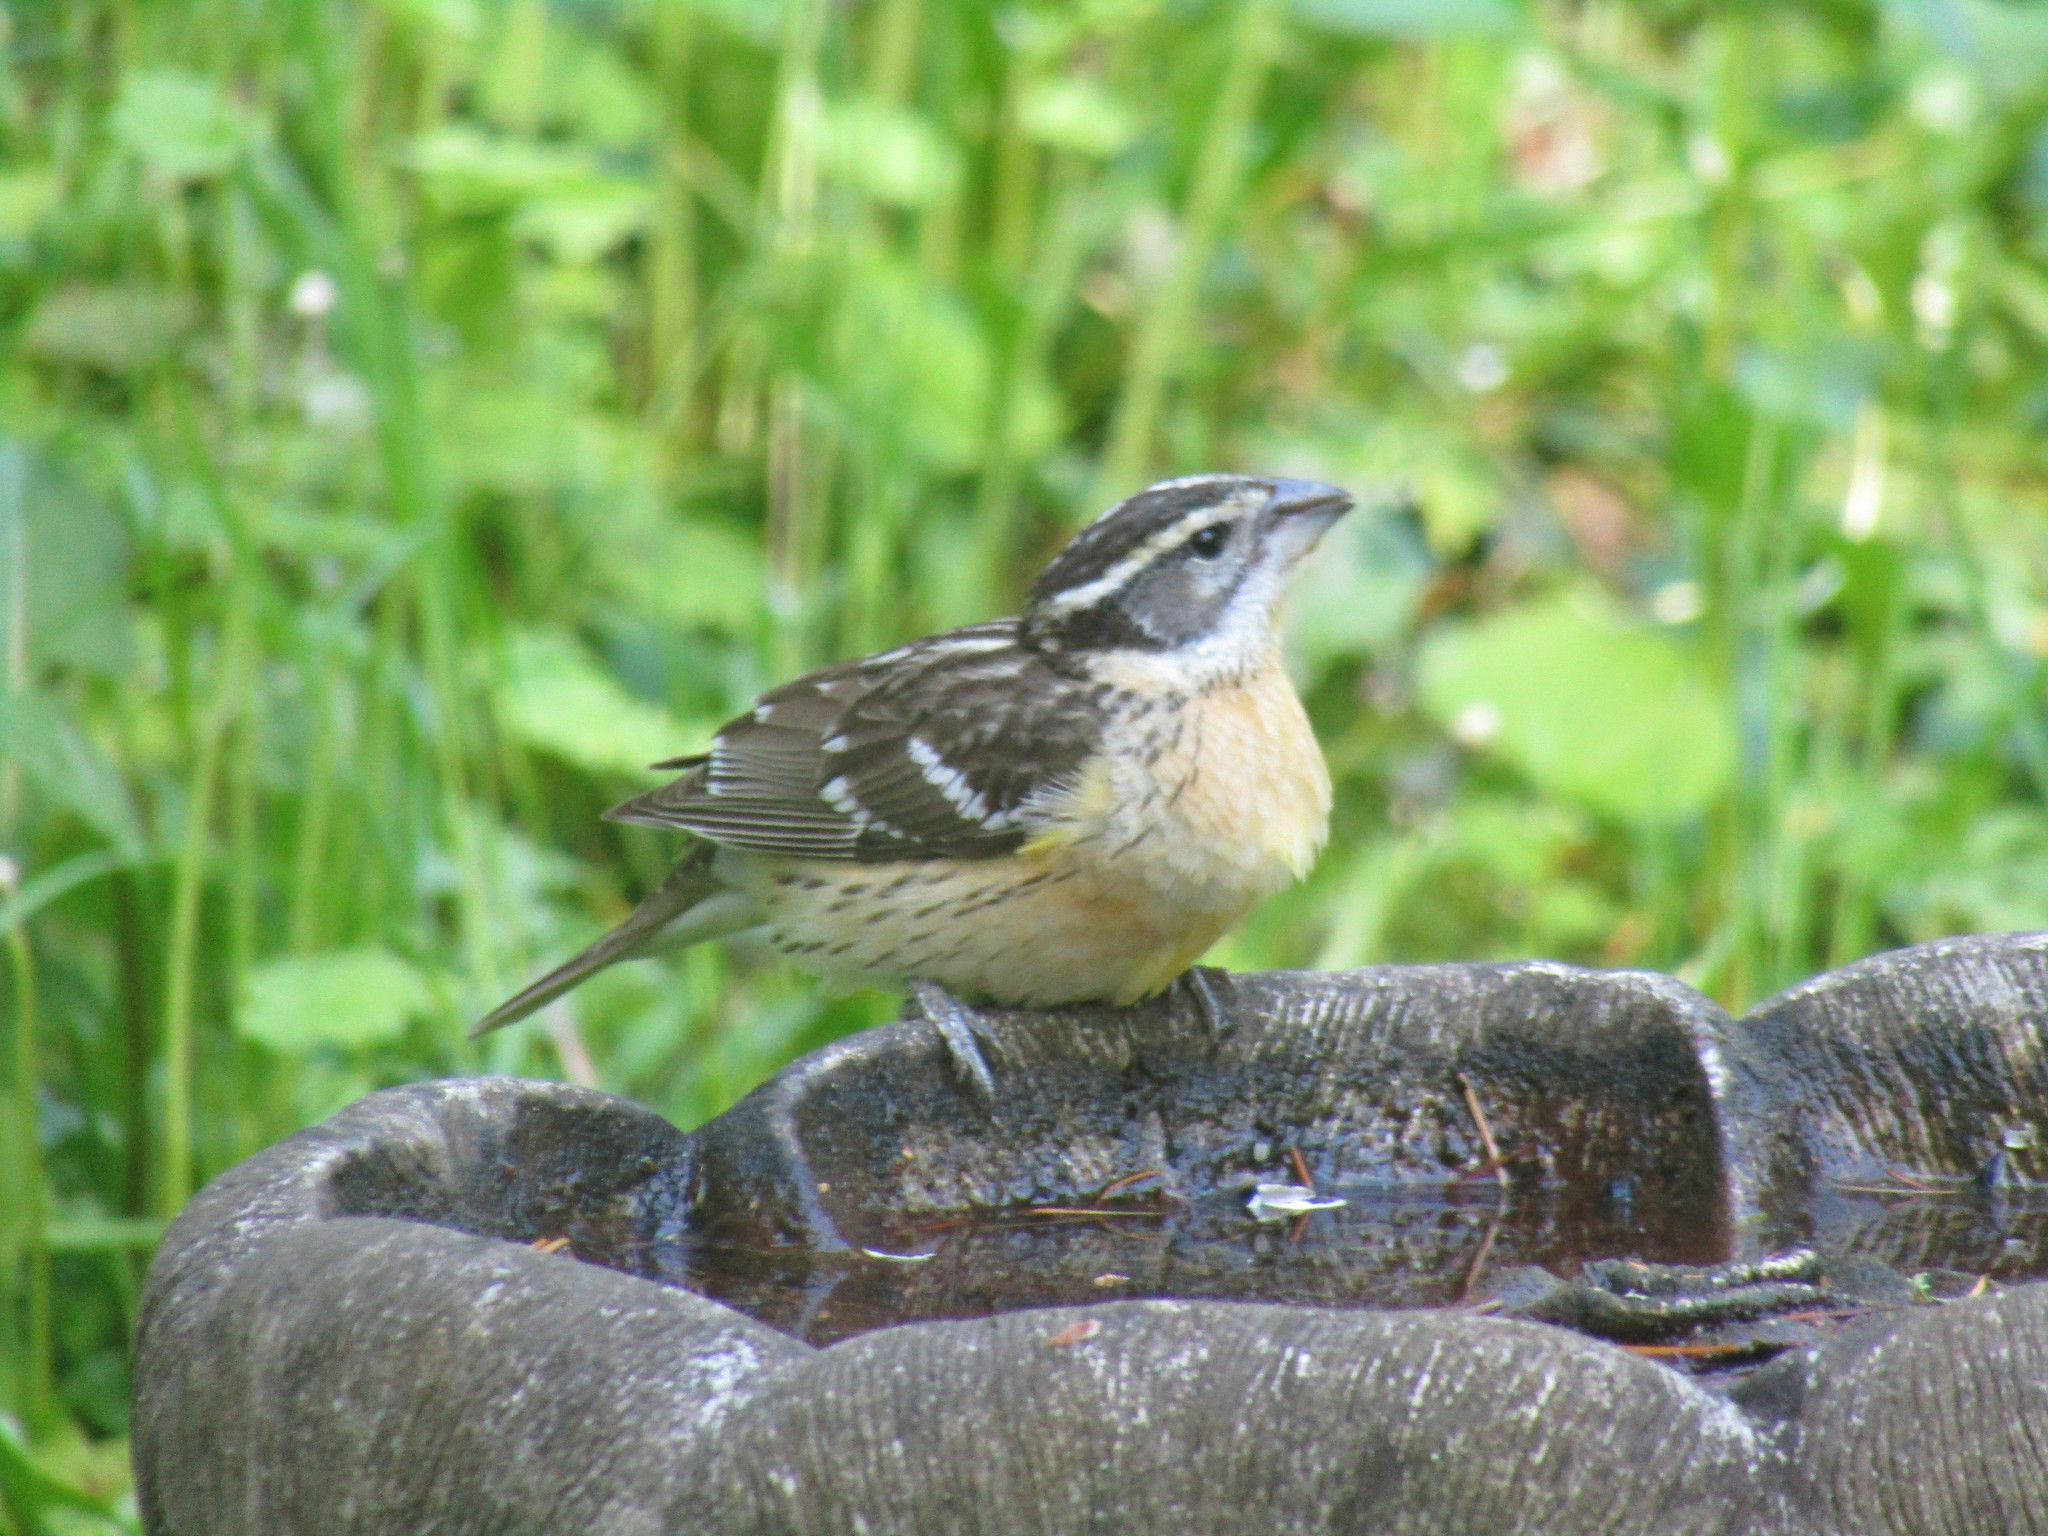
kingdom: Animalia
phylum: Chordata
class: Aves
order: Passeriformes
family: Cardinalidae
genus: Pheucticus
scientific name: Pheucticus melanocephalus
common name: Black-headed grosbeak
